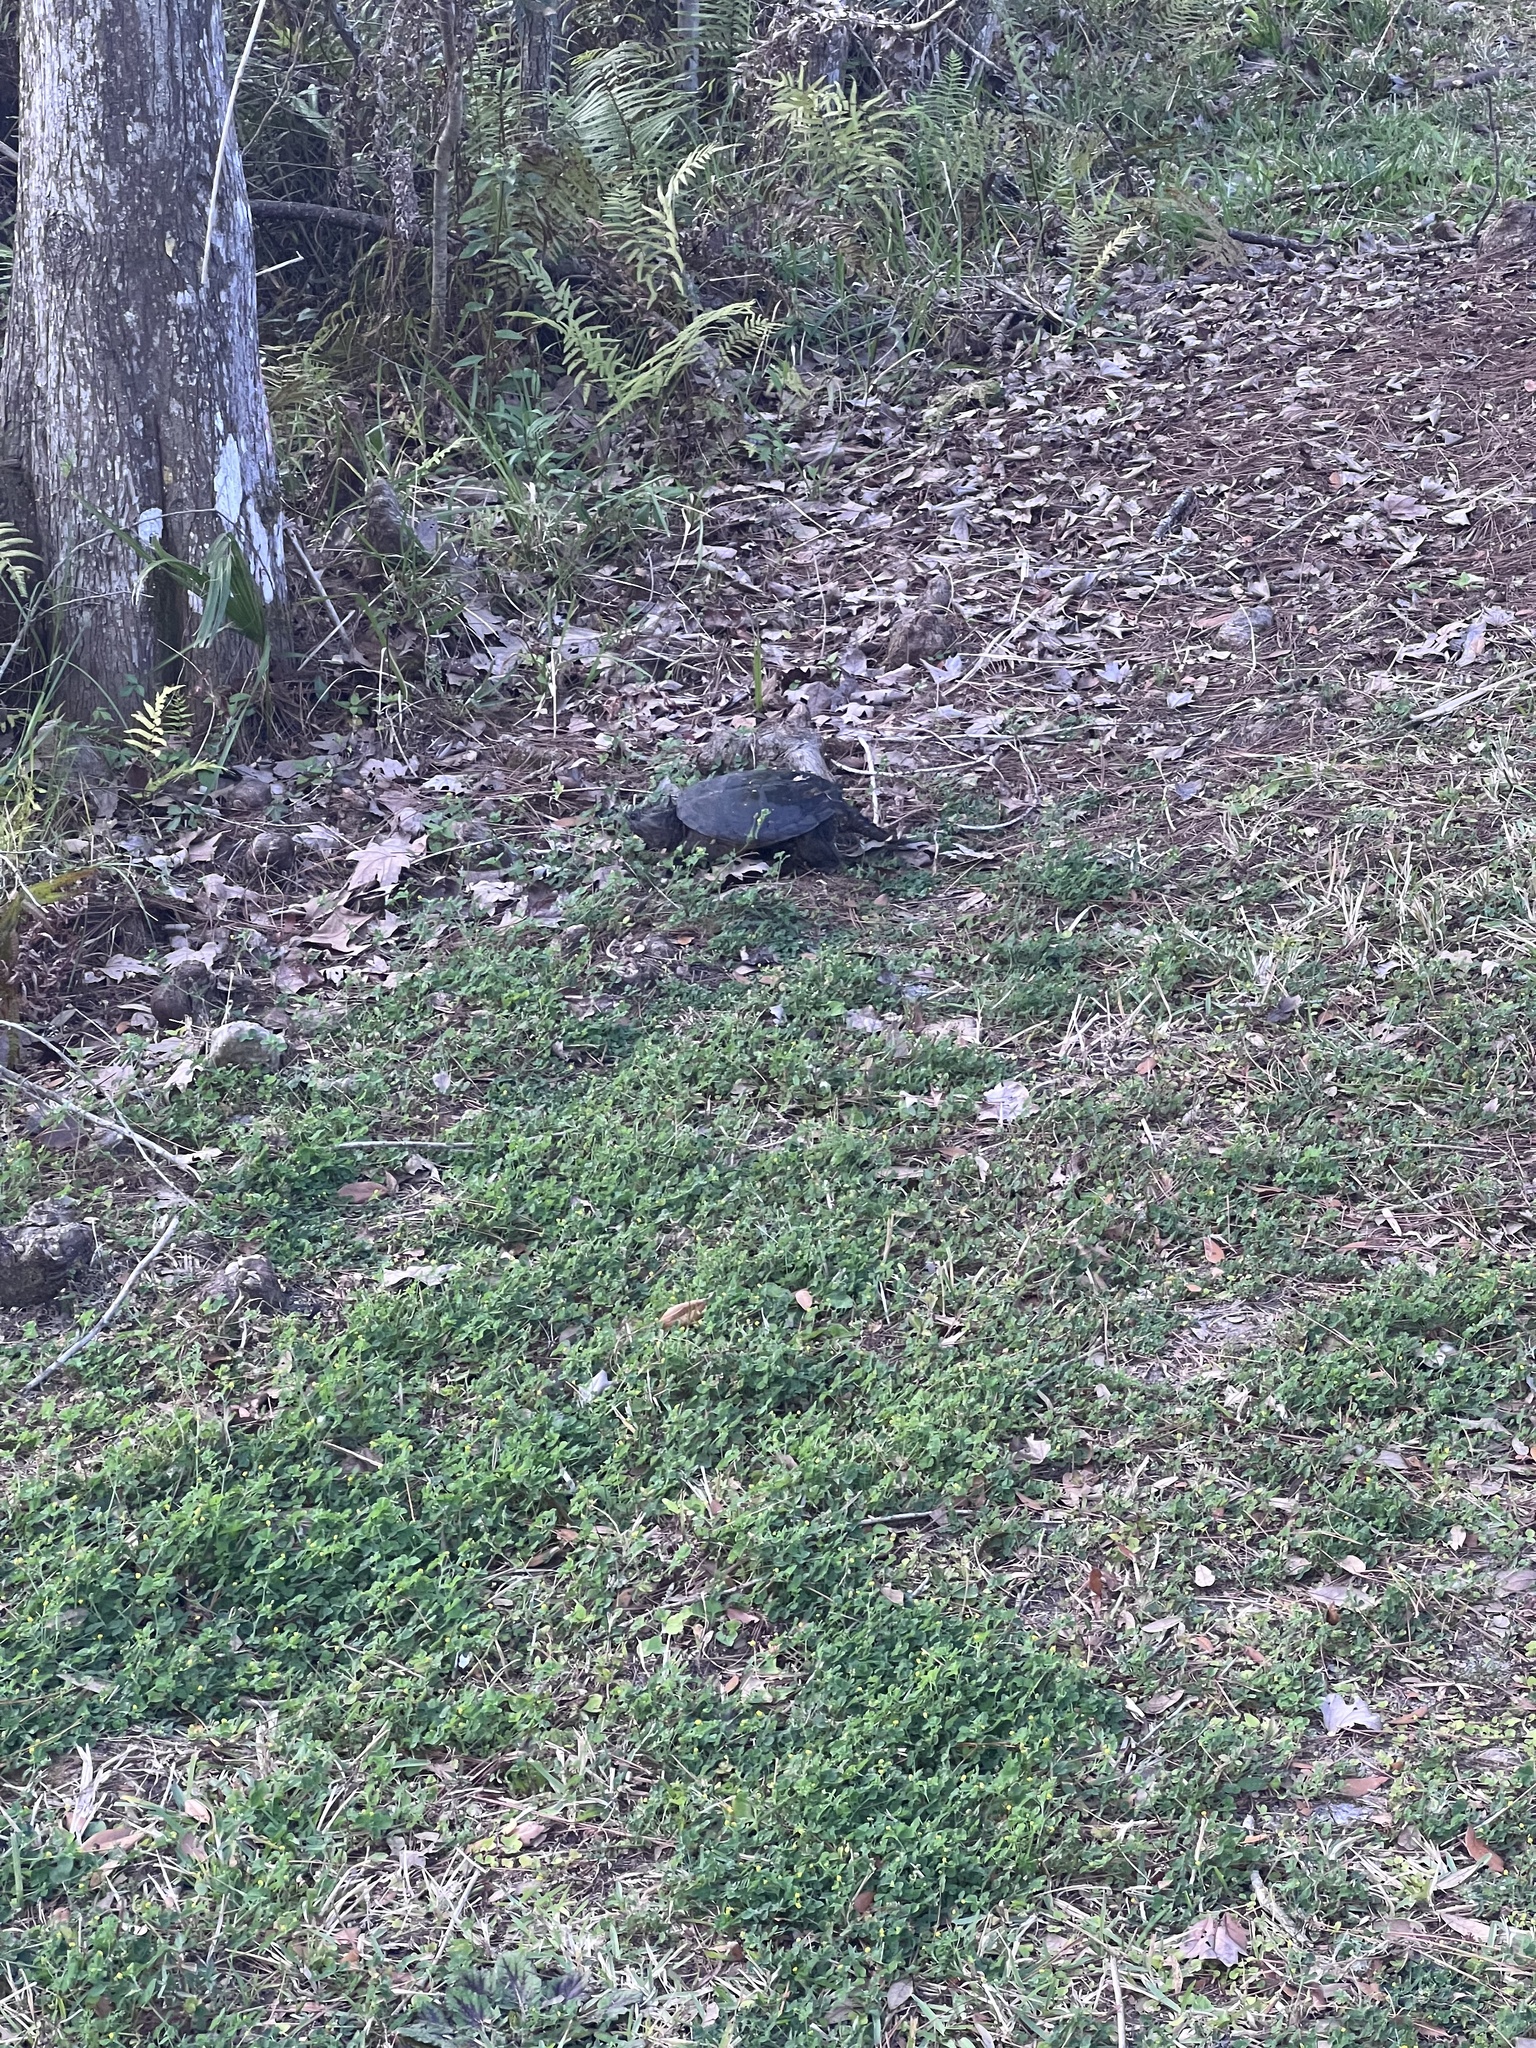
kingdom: Animalia
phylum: Chordata
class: Testudines
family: Chelydridae
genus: Chelydra
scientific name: Chelydra serpentina
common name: Common snapping turtle
